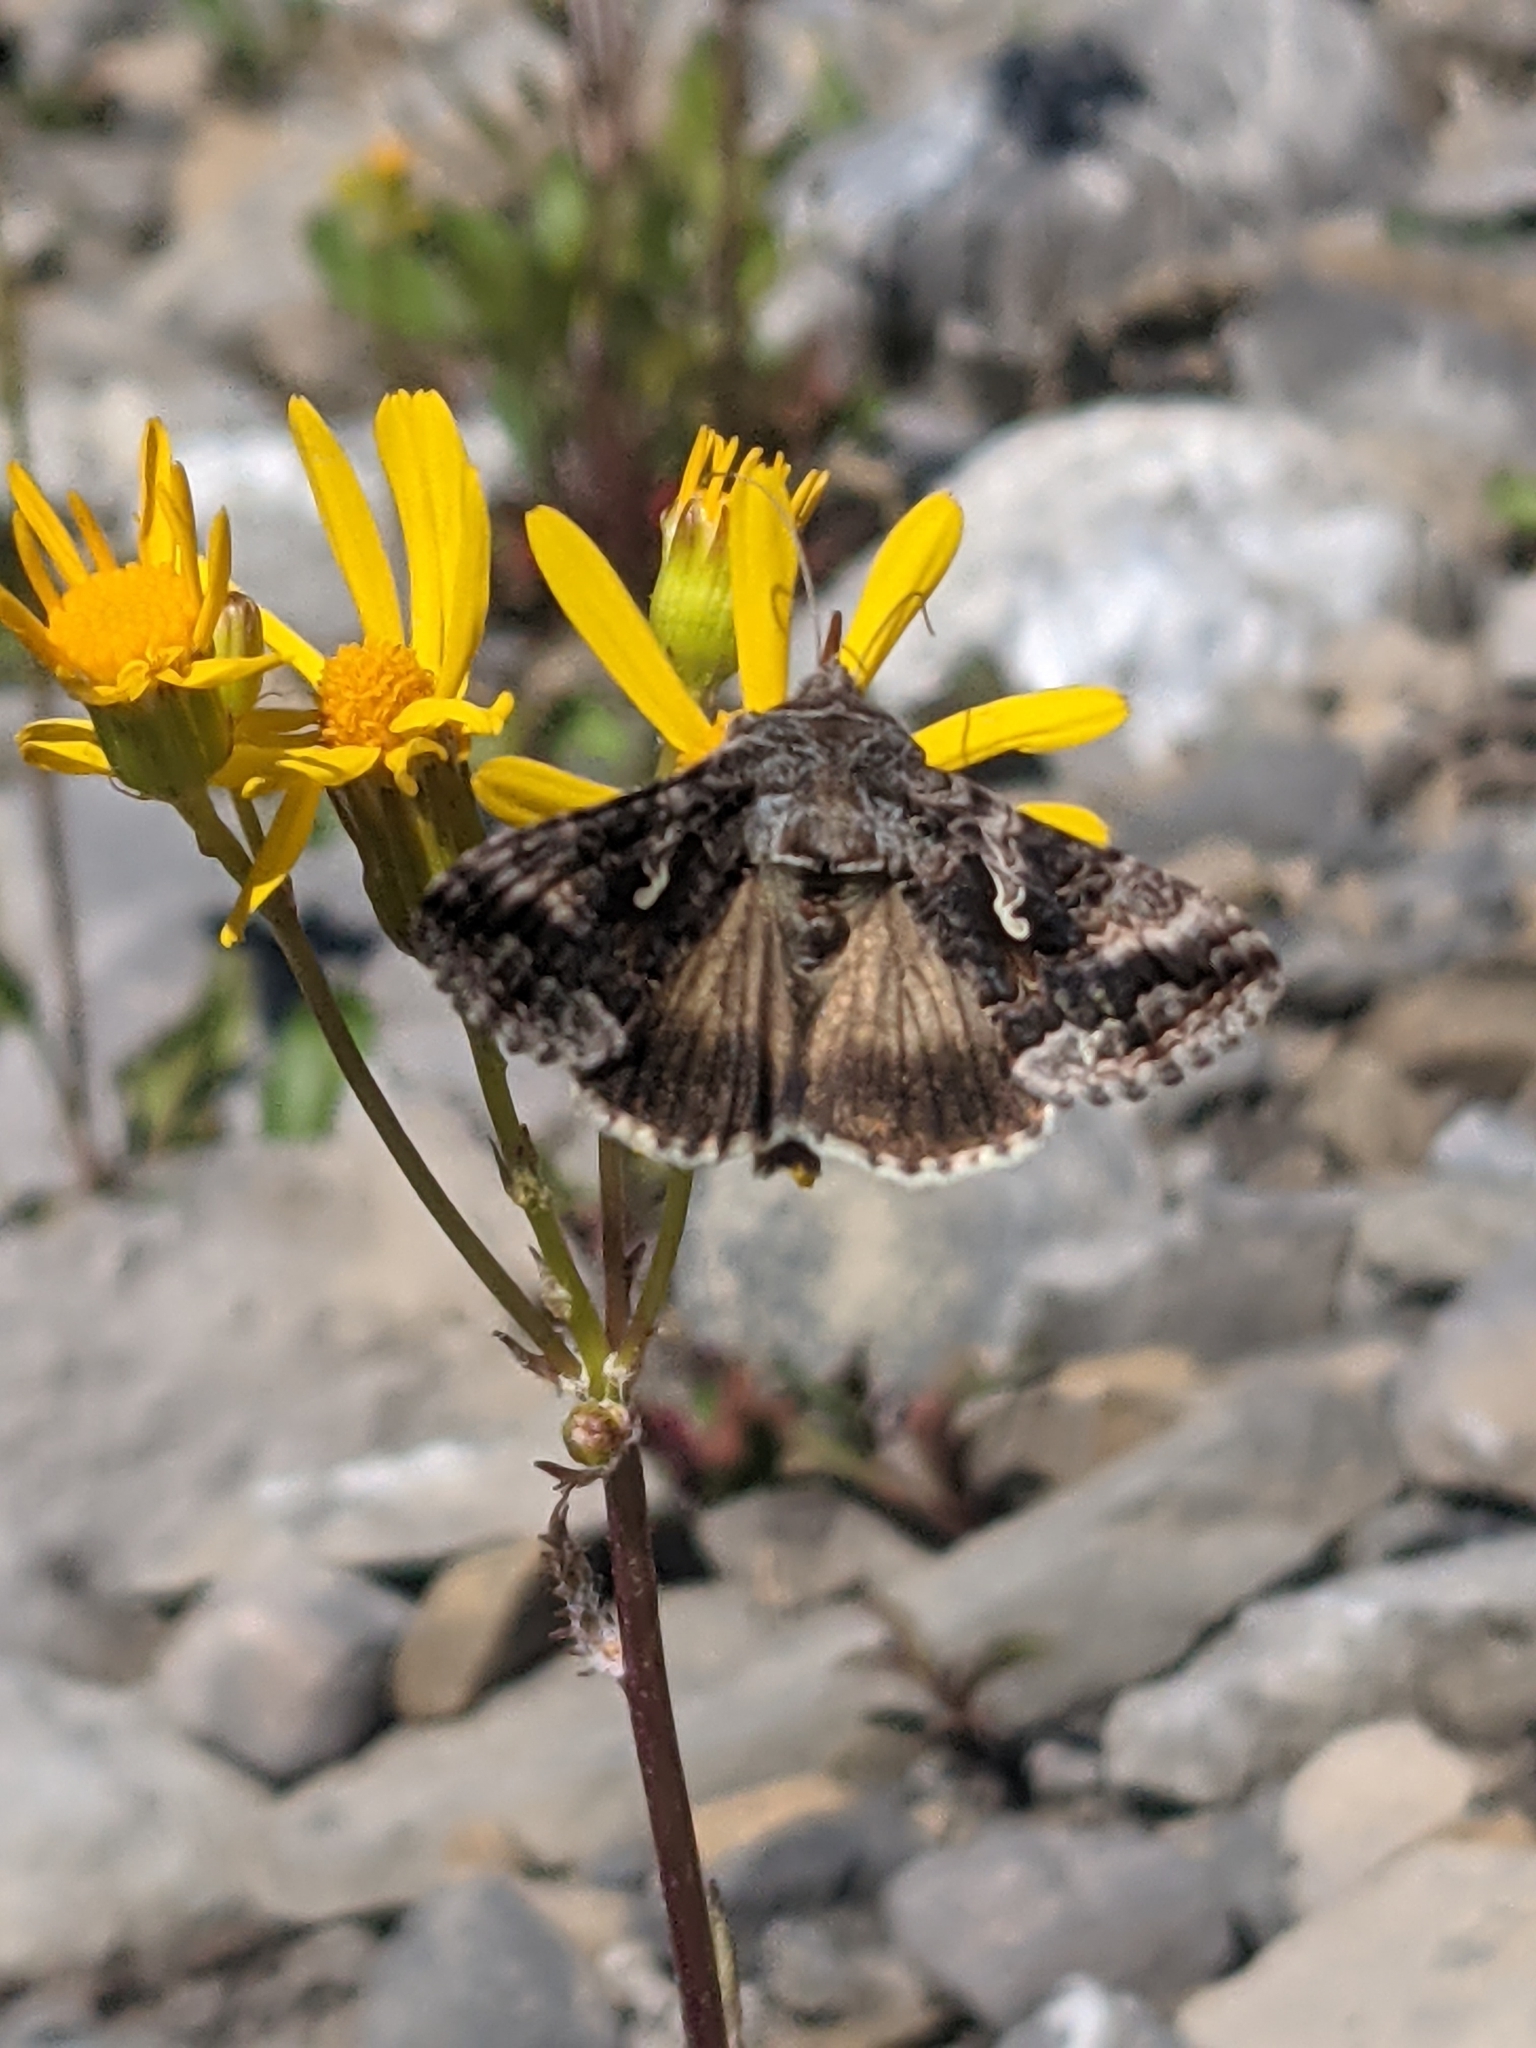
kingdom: Animalia
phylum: Arthropoda
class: Insecta
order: Lepidoptera
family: Noctuidae
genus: Autographa
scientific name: Autographa californica
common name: Alfalfa looper
